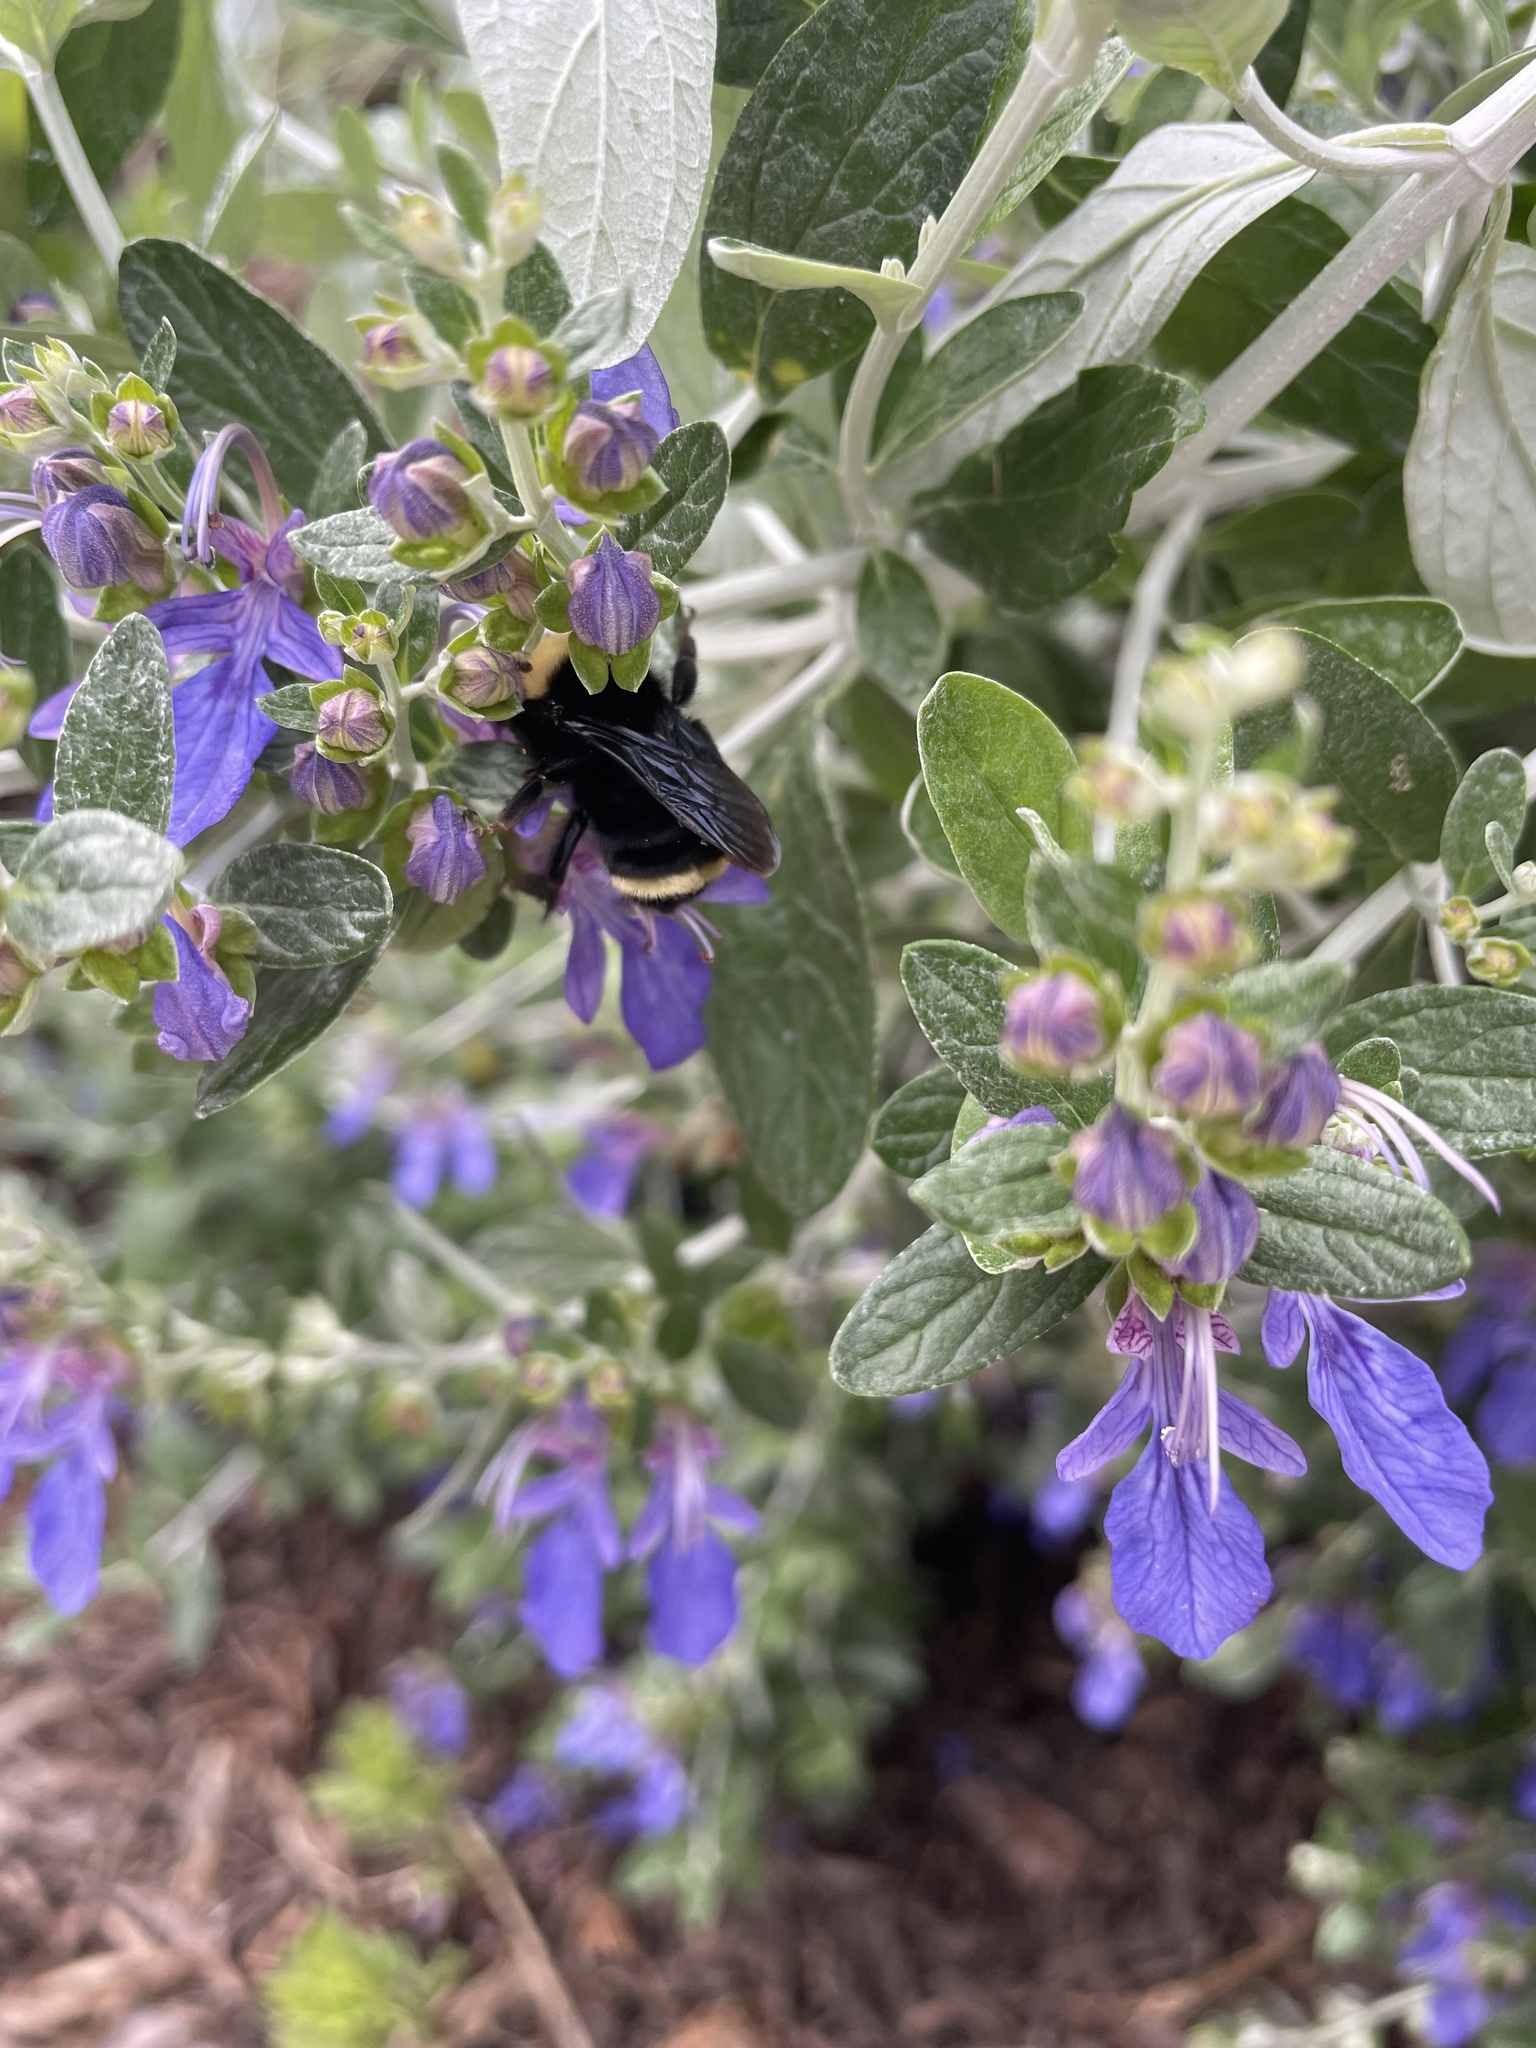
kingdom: Animalia
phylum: Arthropoda
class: Insecta
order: Hymenoptera
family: Apidae
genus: Bombus
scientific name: Bombus vosnesenskii
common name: Vosnesensky bumble bee
